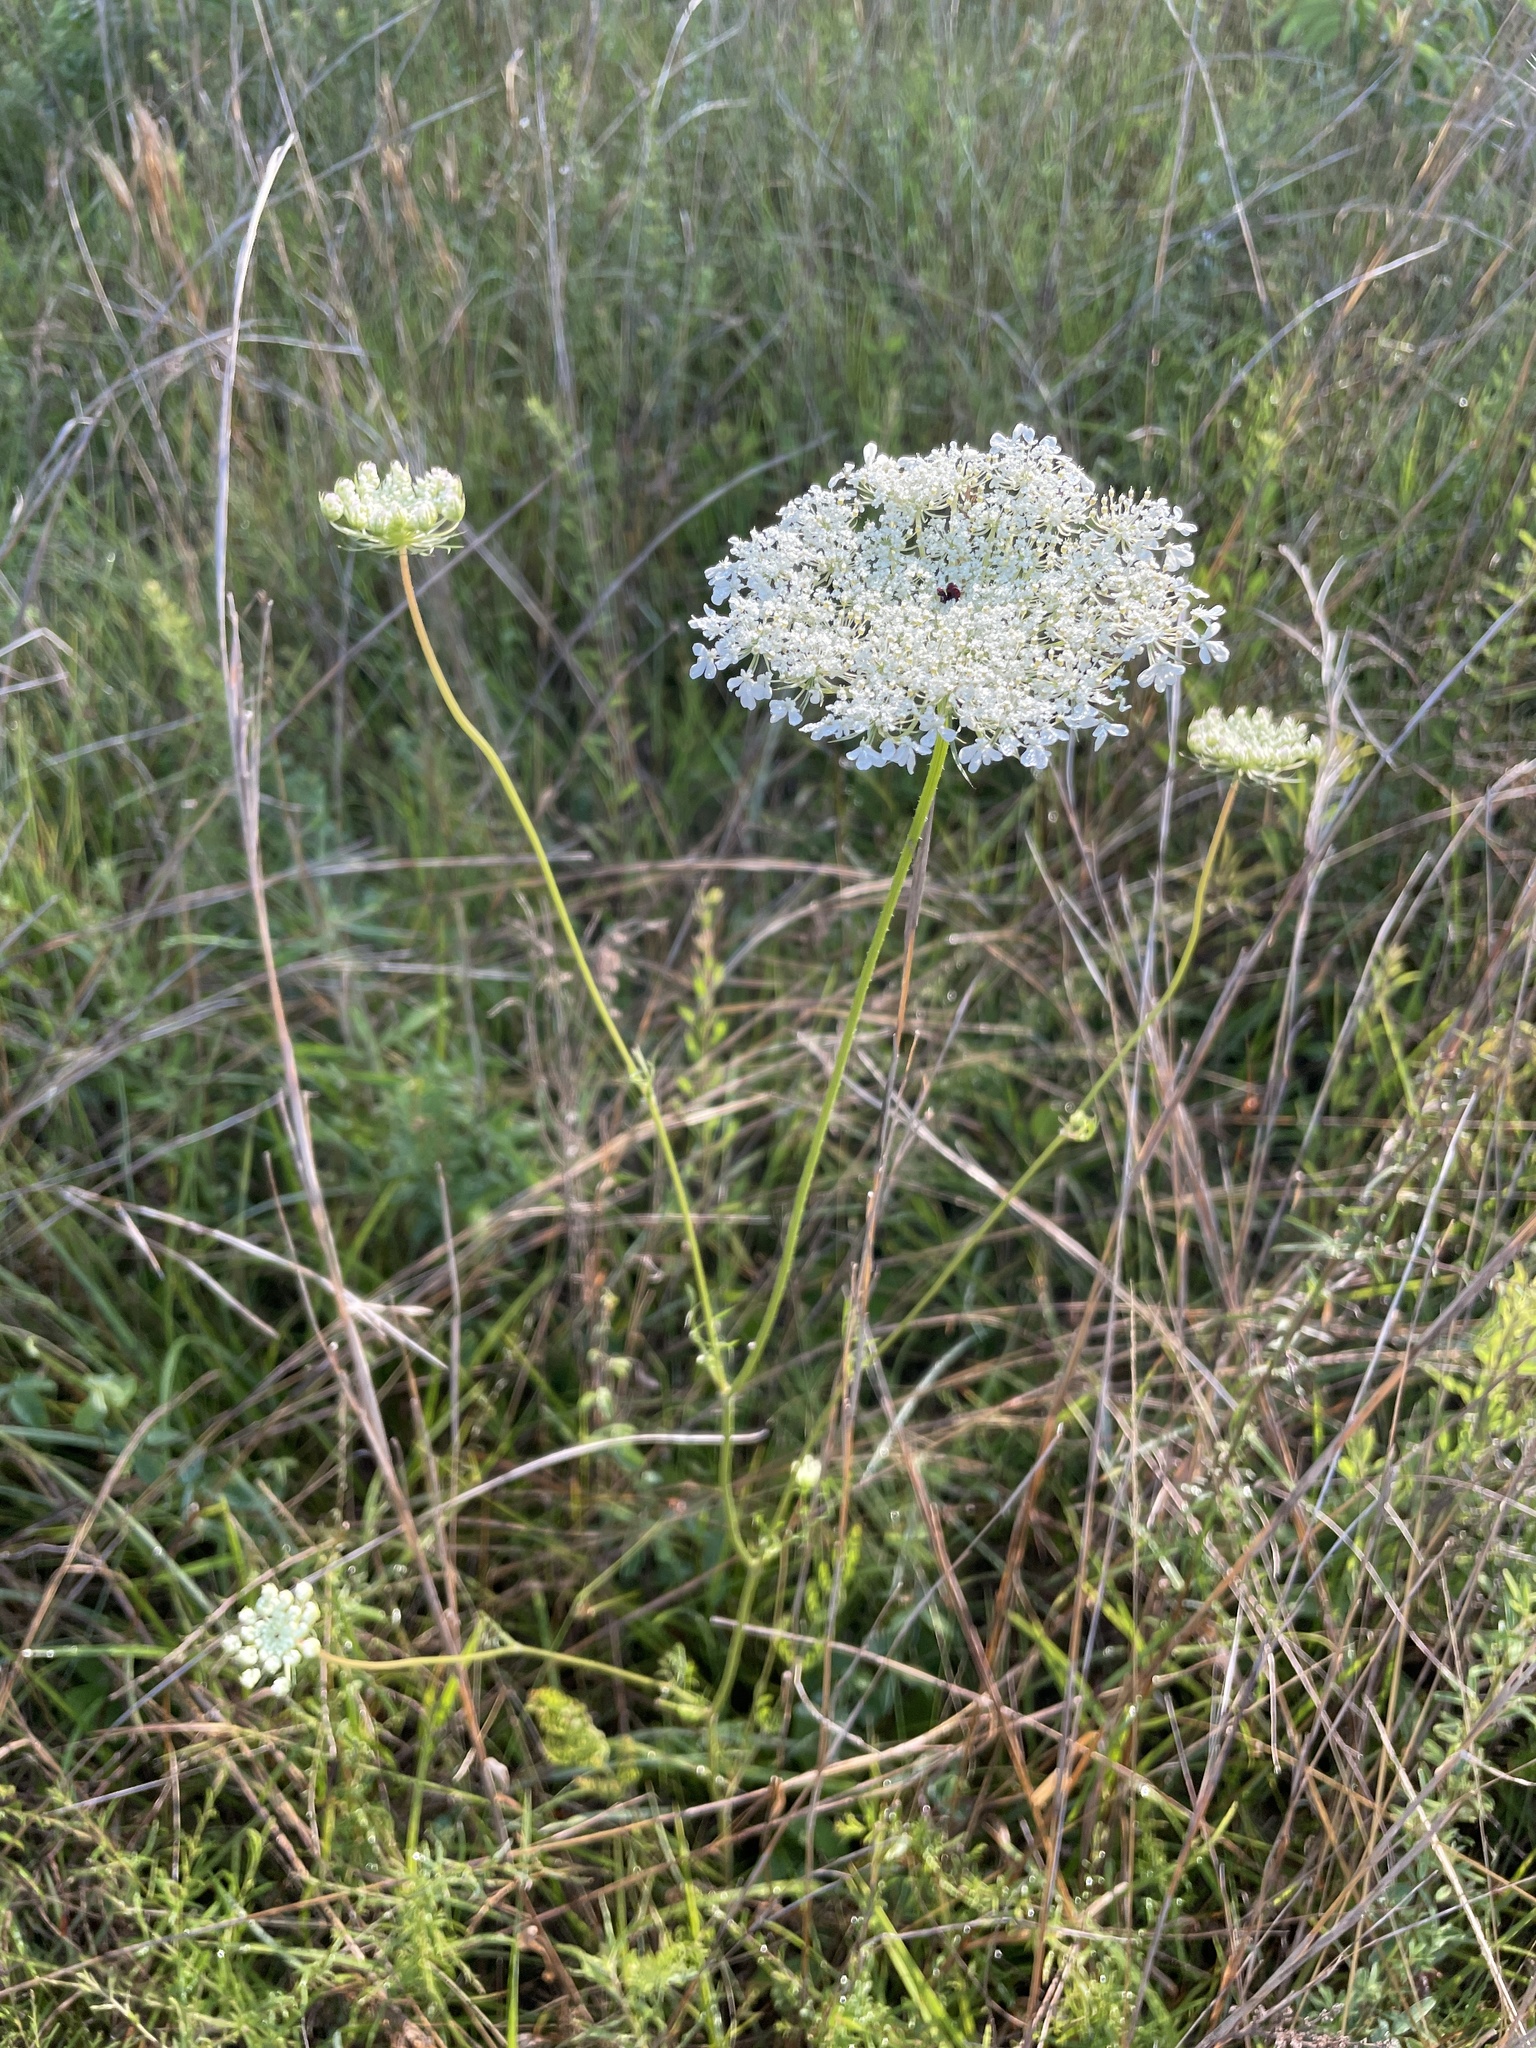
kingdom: Plantae
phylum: Tracheophyta
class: Magnoliopsida
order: Apiales
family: Apiaceae
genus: Daucus
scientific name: Daucus carota
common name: Wild carrot
